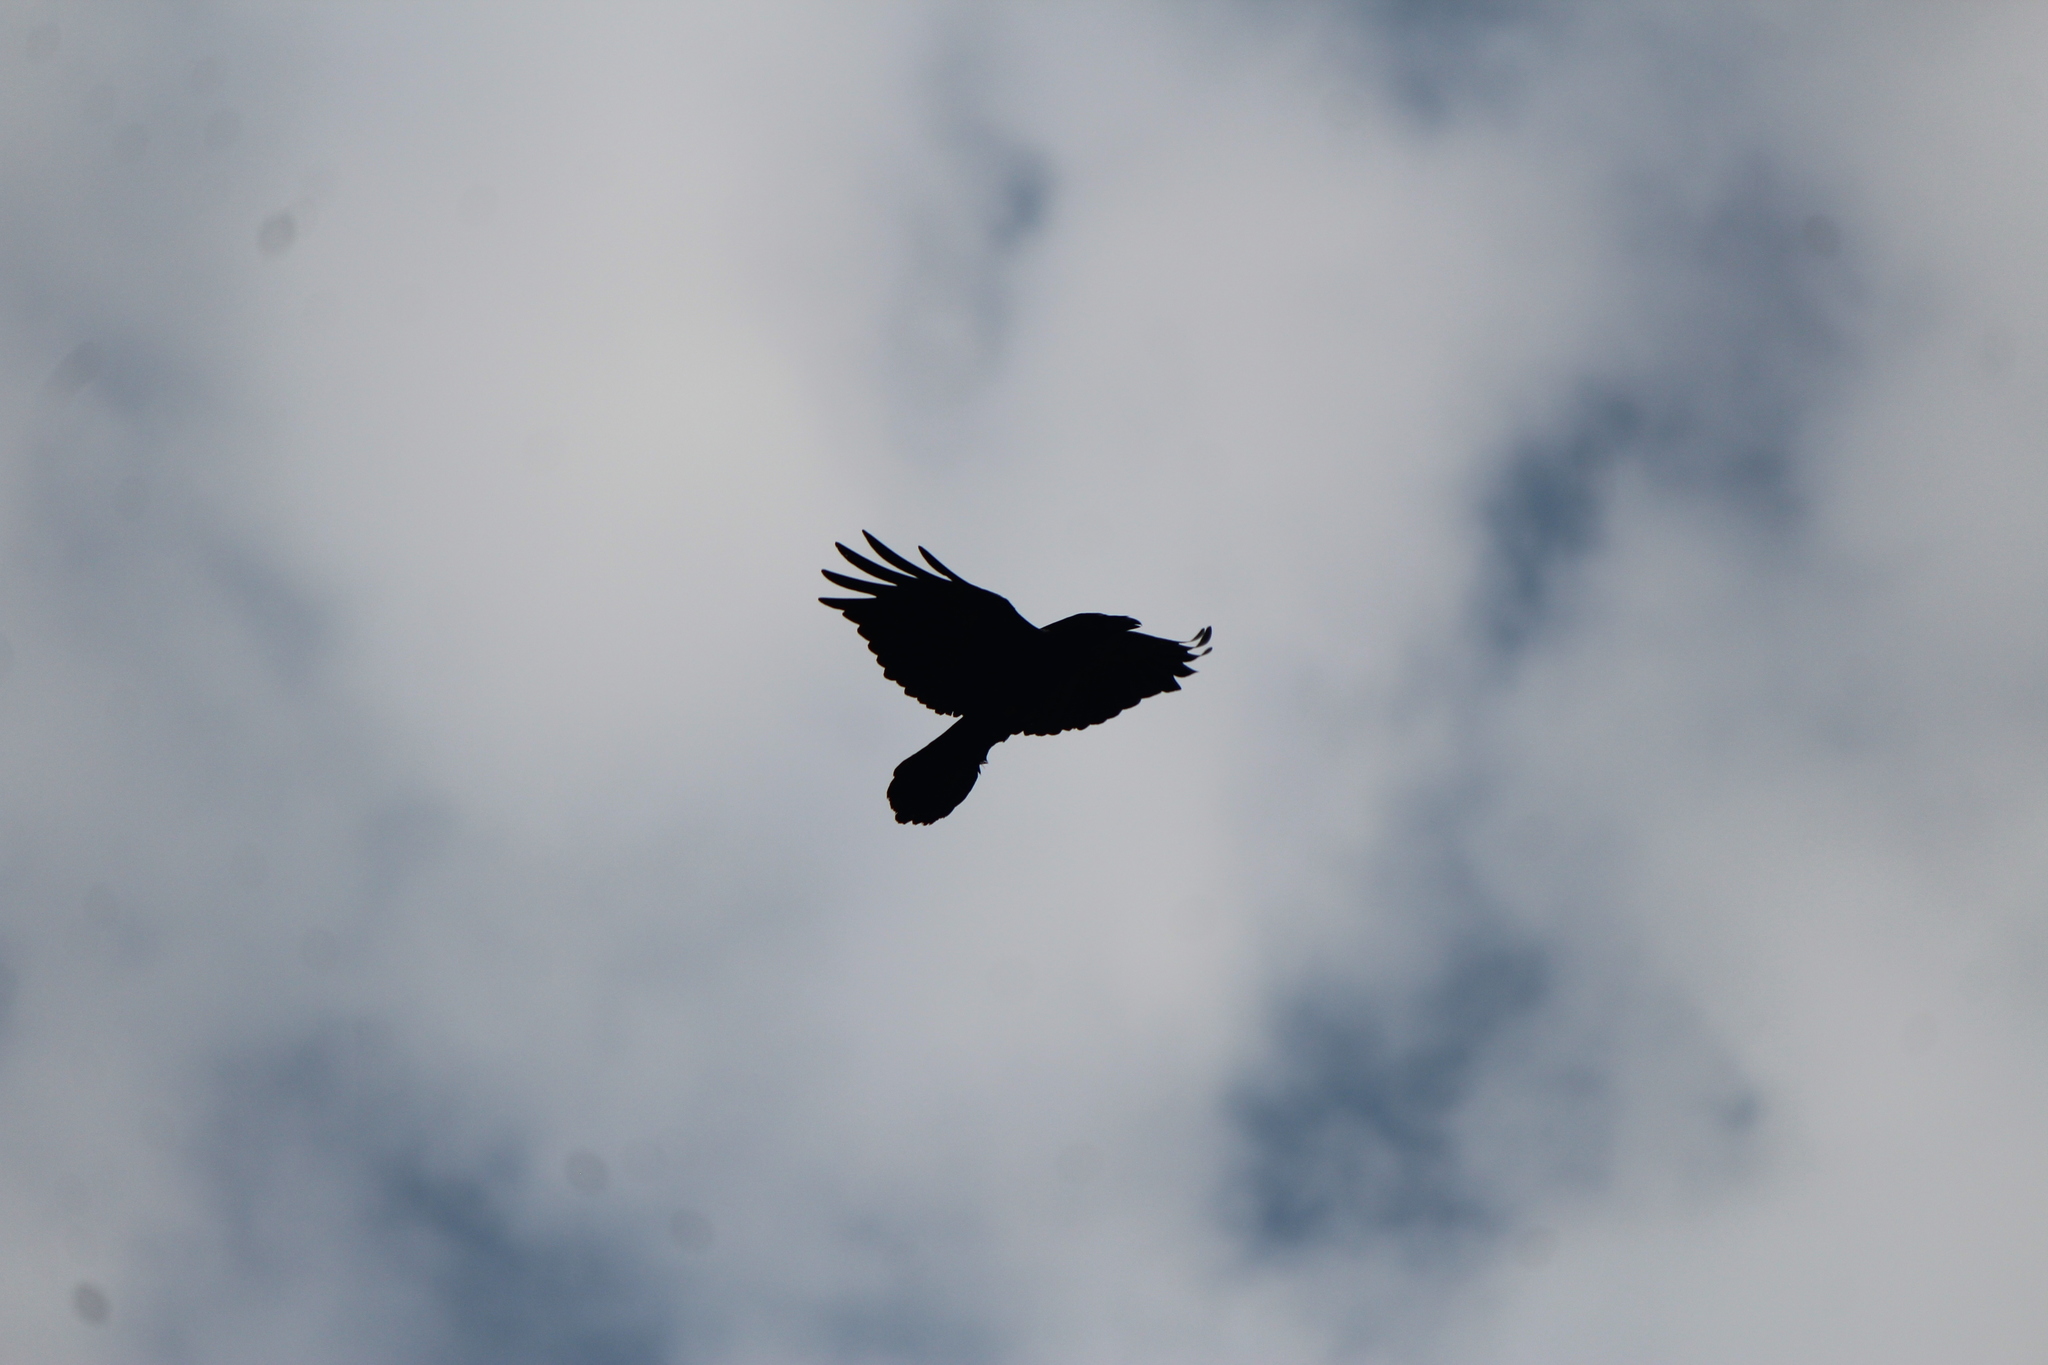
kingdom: Animalia
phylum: Chordata
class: Aves
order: Passeriformes
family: Corvidae
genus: Corvus
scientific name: Corvus corax
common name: Common raven
